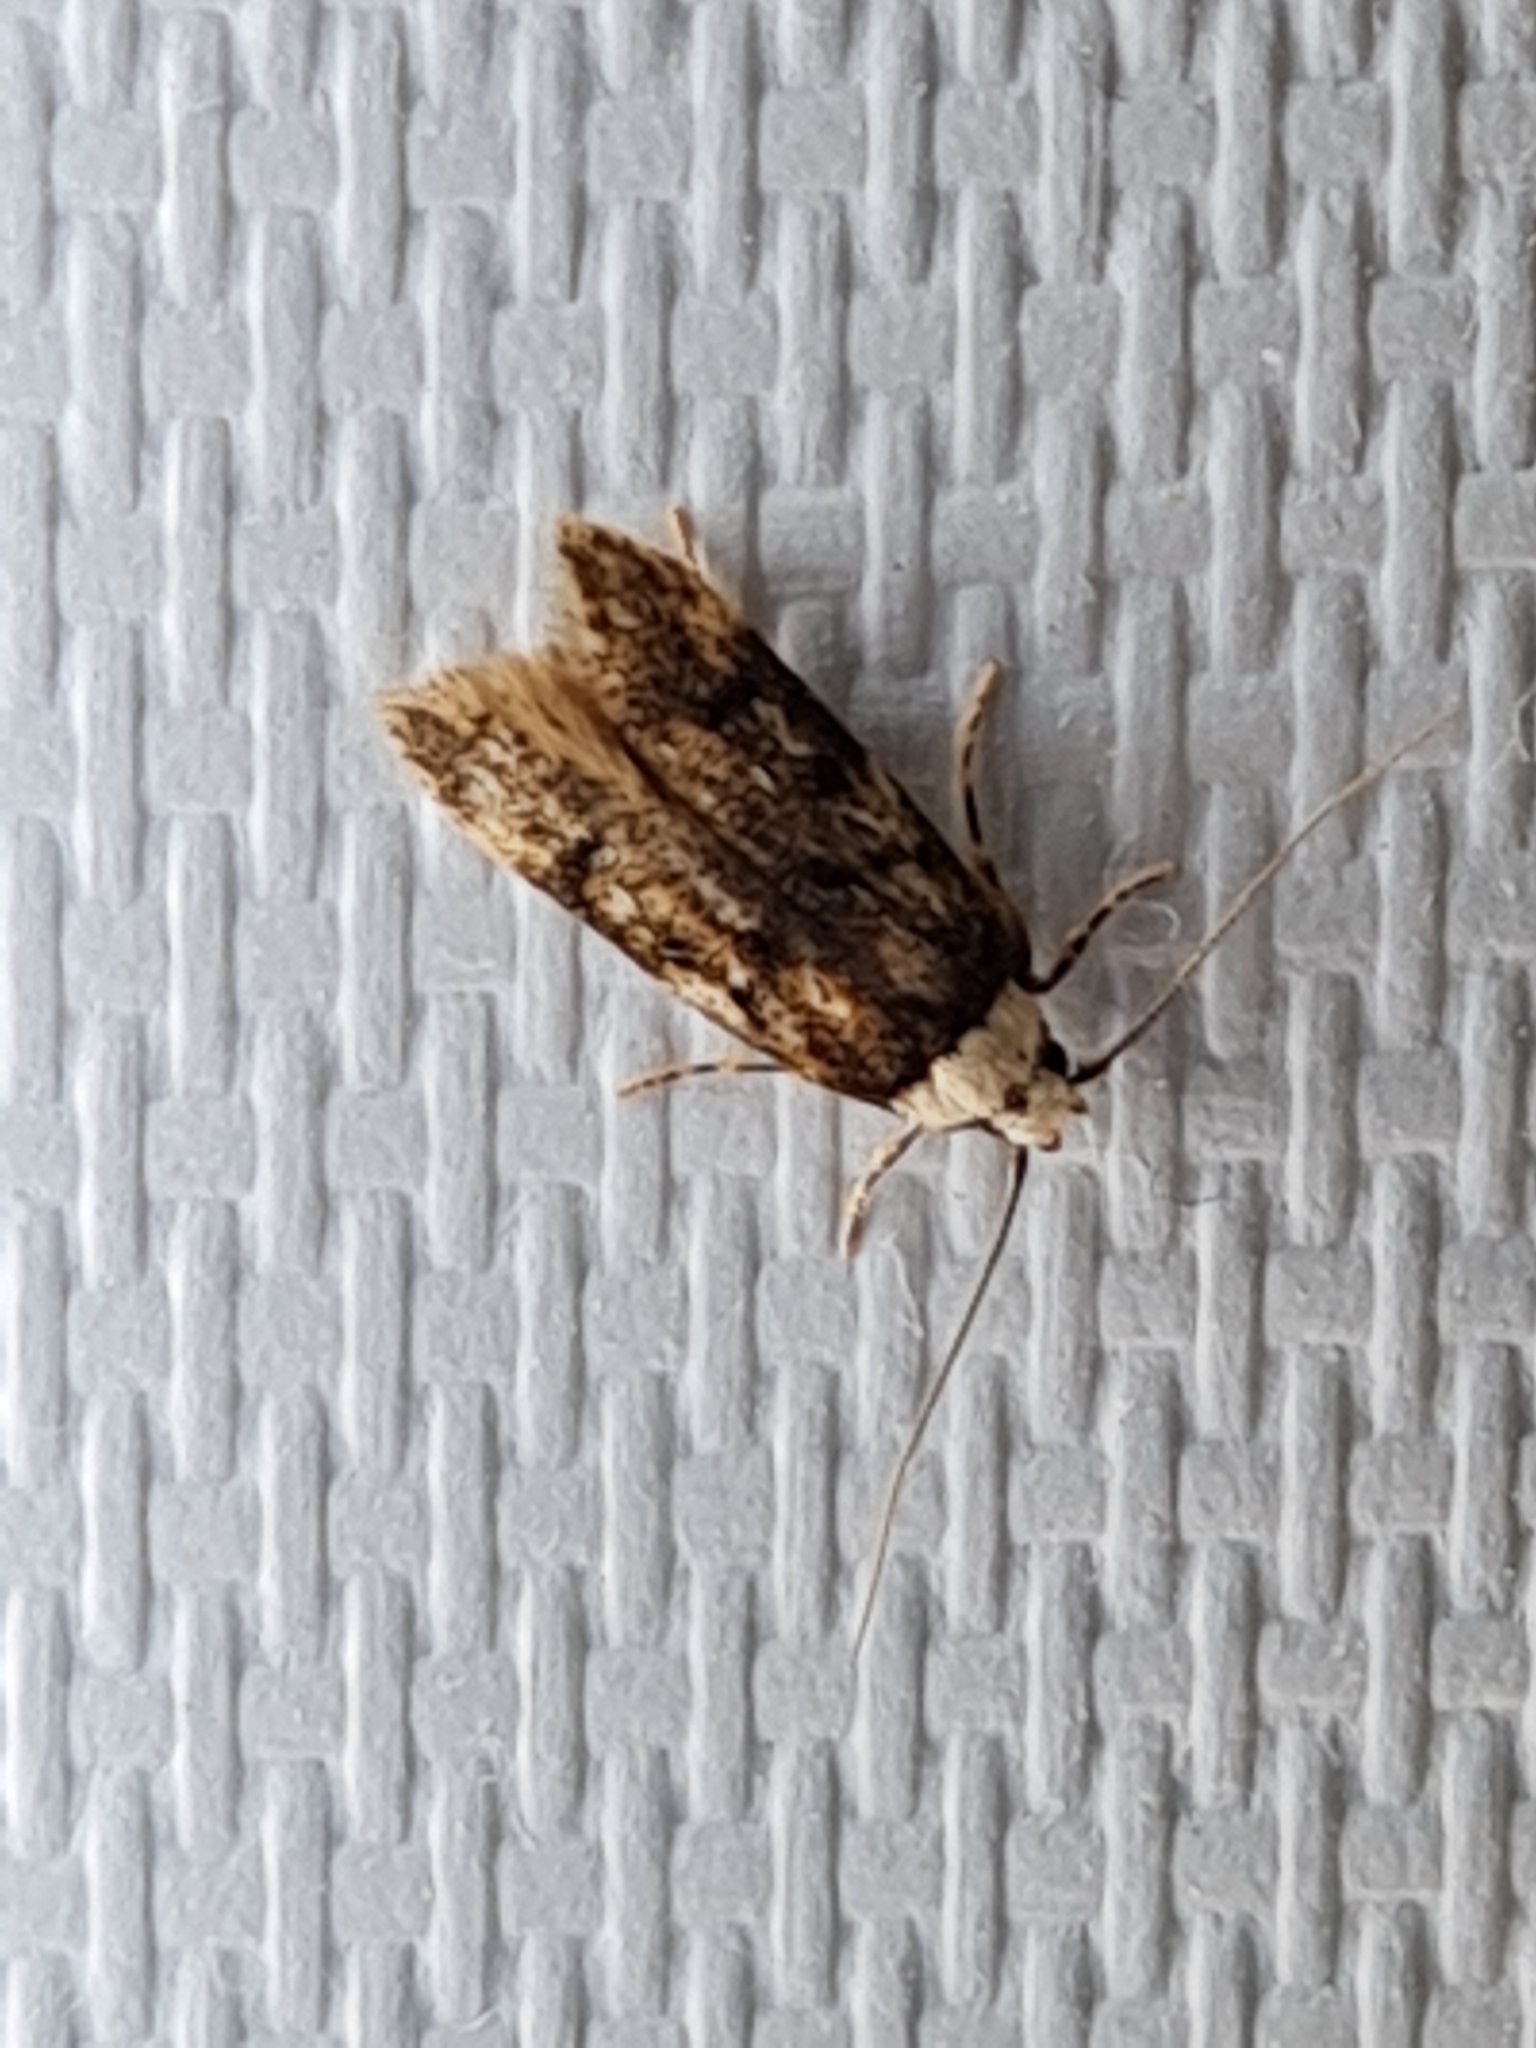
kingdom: Animalia
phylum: Arthropoda
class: Insecta
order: Lepidoptera
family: Oecophoridae
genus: Endrosis
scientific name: Endrosis sarcitrella
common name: White-shouldered house moth
